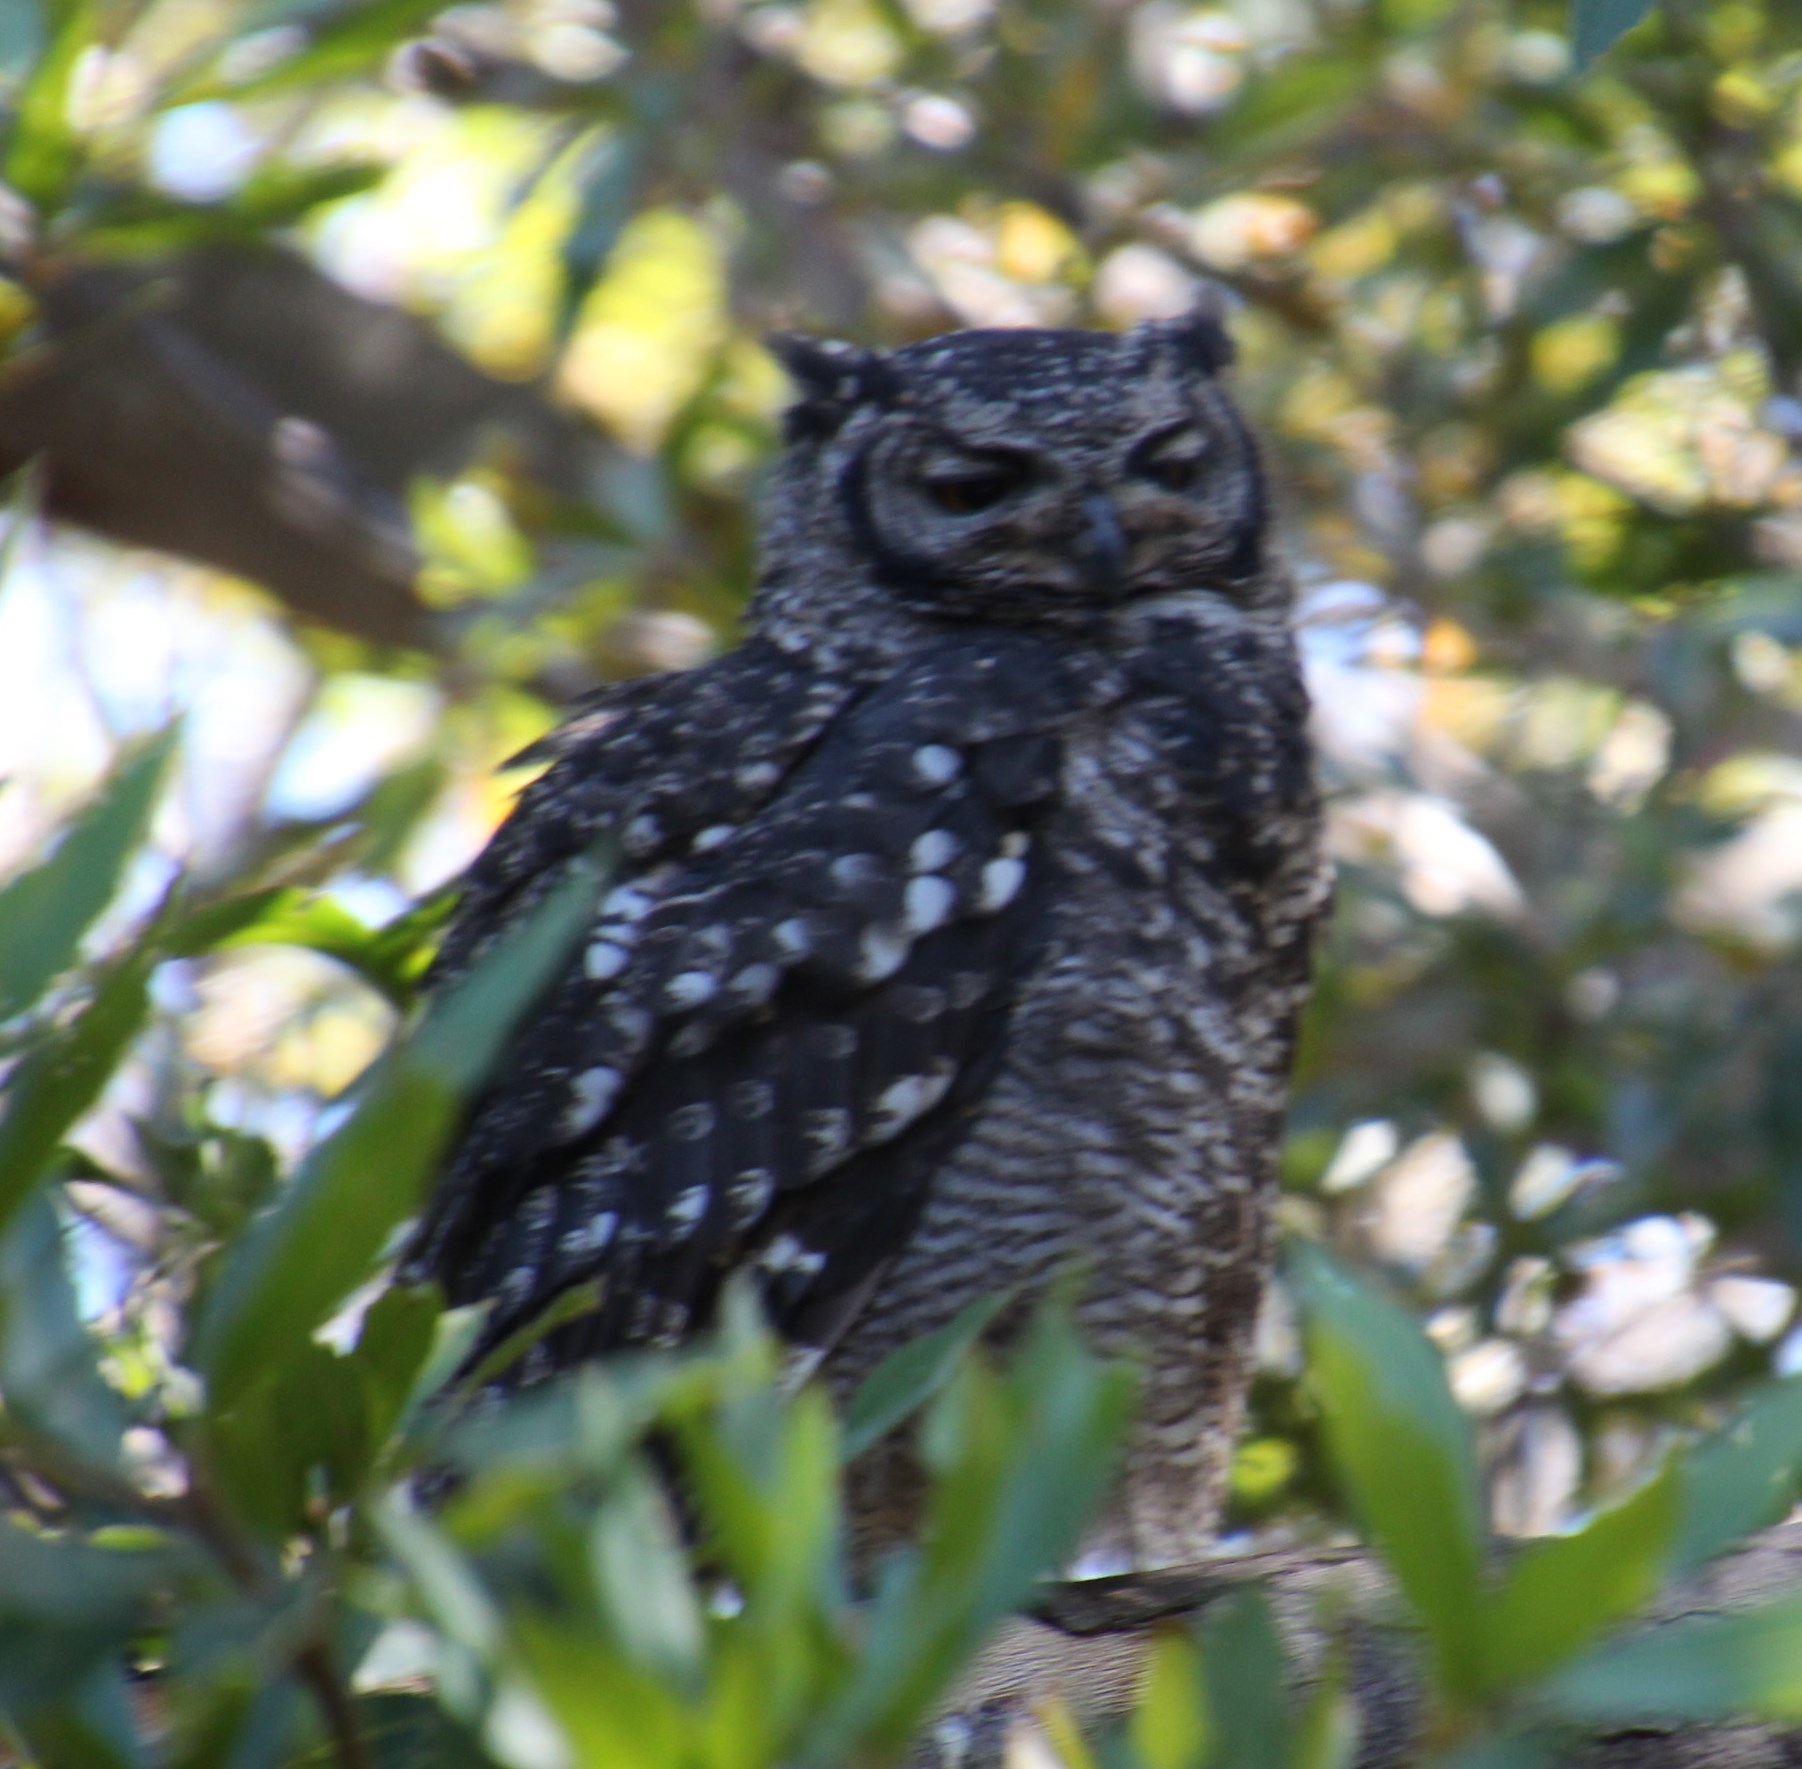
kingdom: Animalia
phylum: Chordata
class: Aves
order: Strigiformes
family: Strigidae
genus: Bubo
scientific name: Bubo africanus
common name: Spotted eagle-owl
